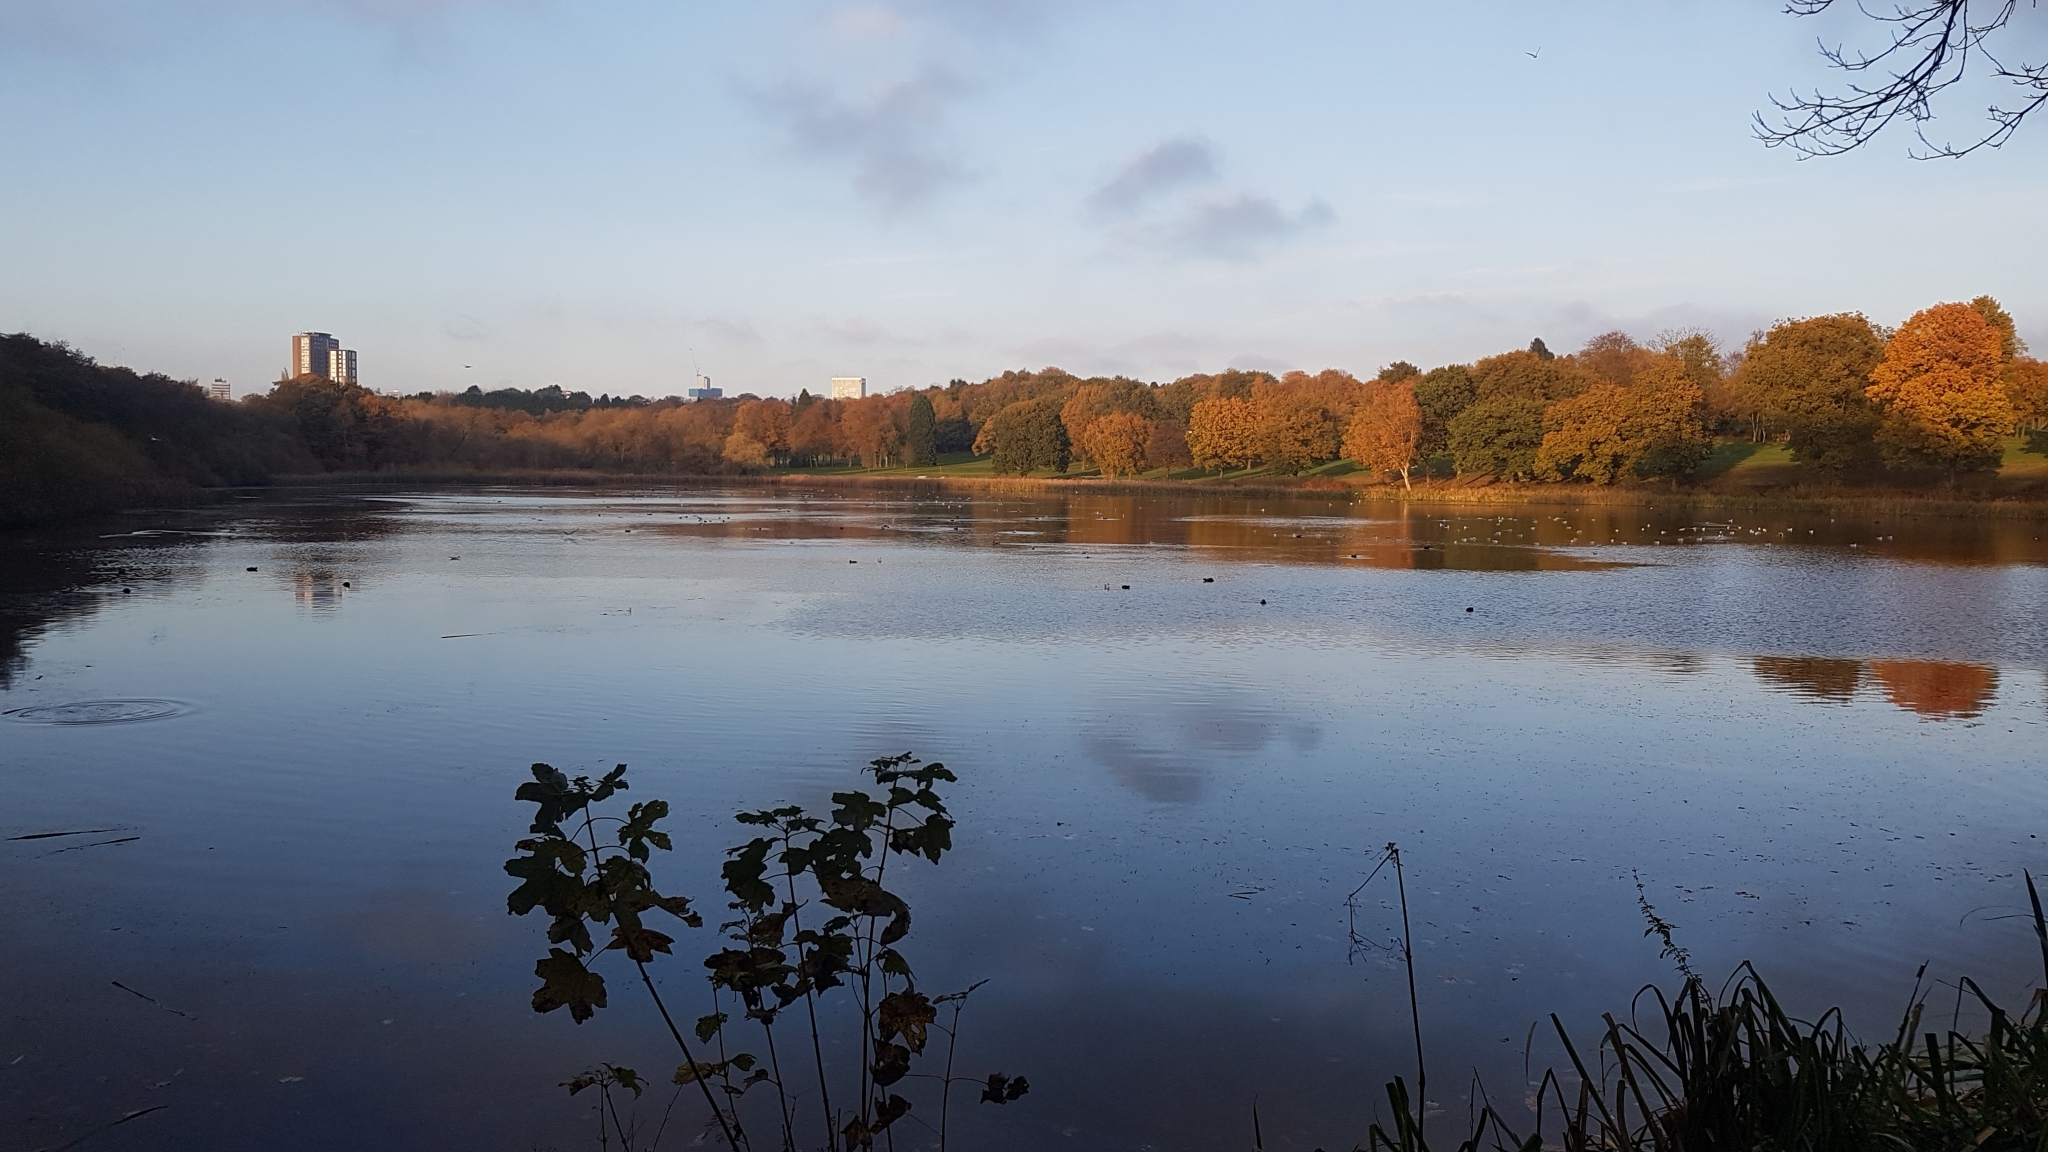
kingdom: Animalia
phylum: Chordata
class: Aves
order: Gruiformes
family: Rallidae
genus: Fulica
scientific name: Fulica atra
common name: Eurasian coot
